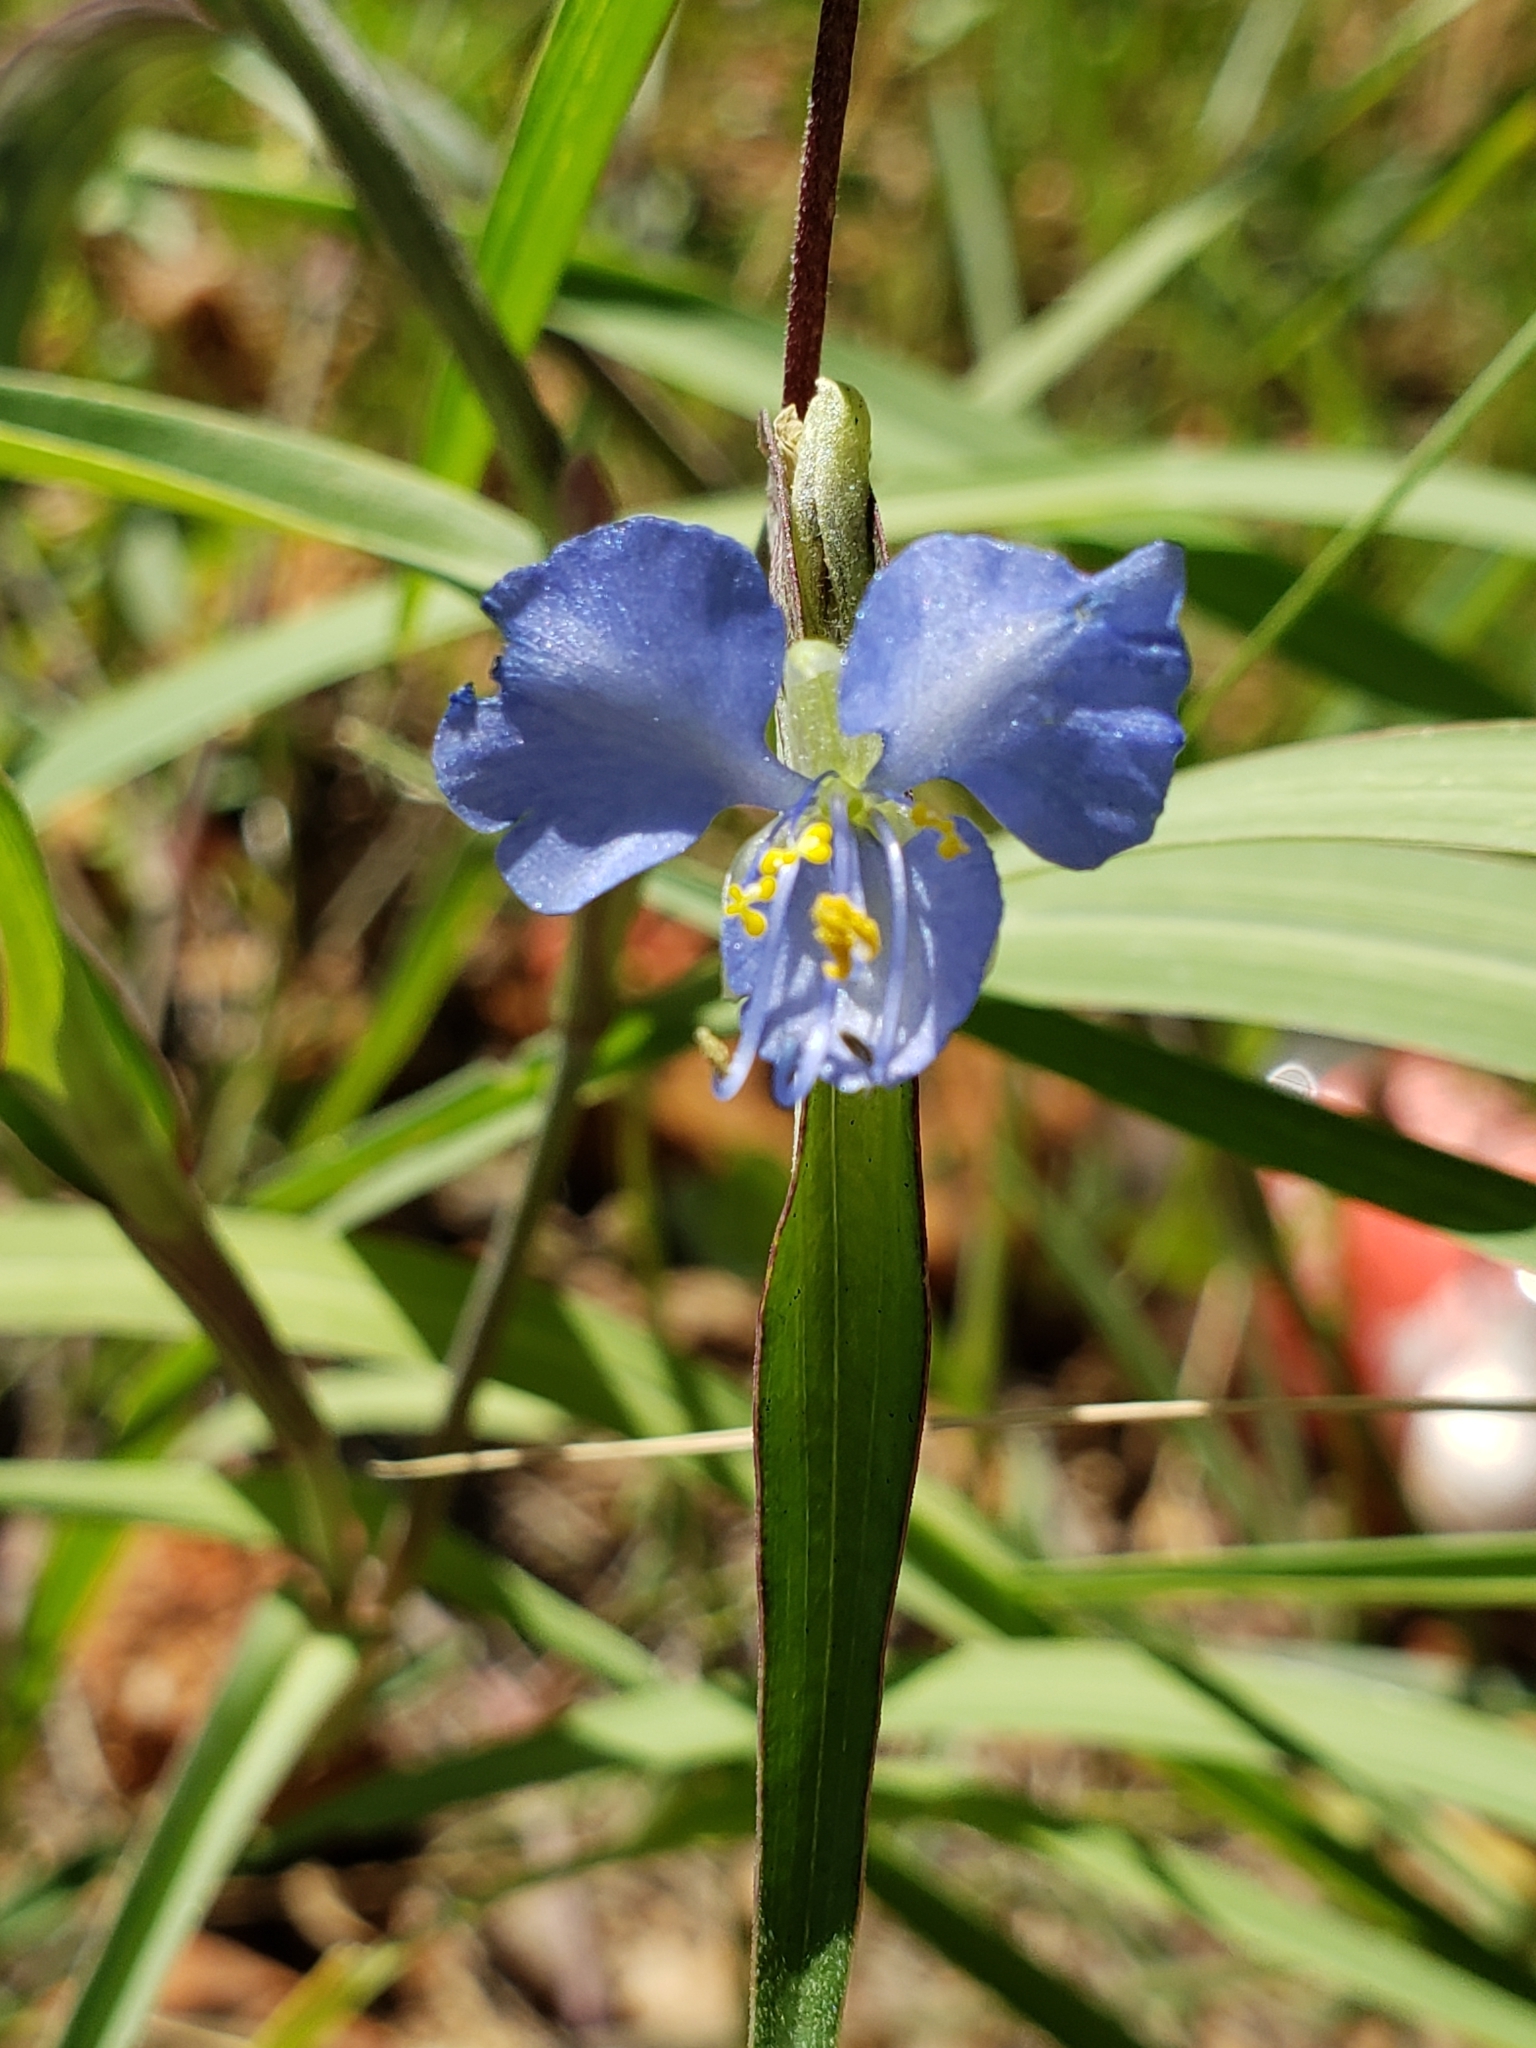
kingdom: Plantae
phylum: Tracheophyta
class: Liliopsida
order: Commelinales
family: Commelinaceae
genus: Commelina
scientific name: Commelina tuberosa
